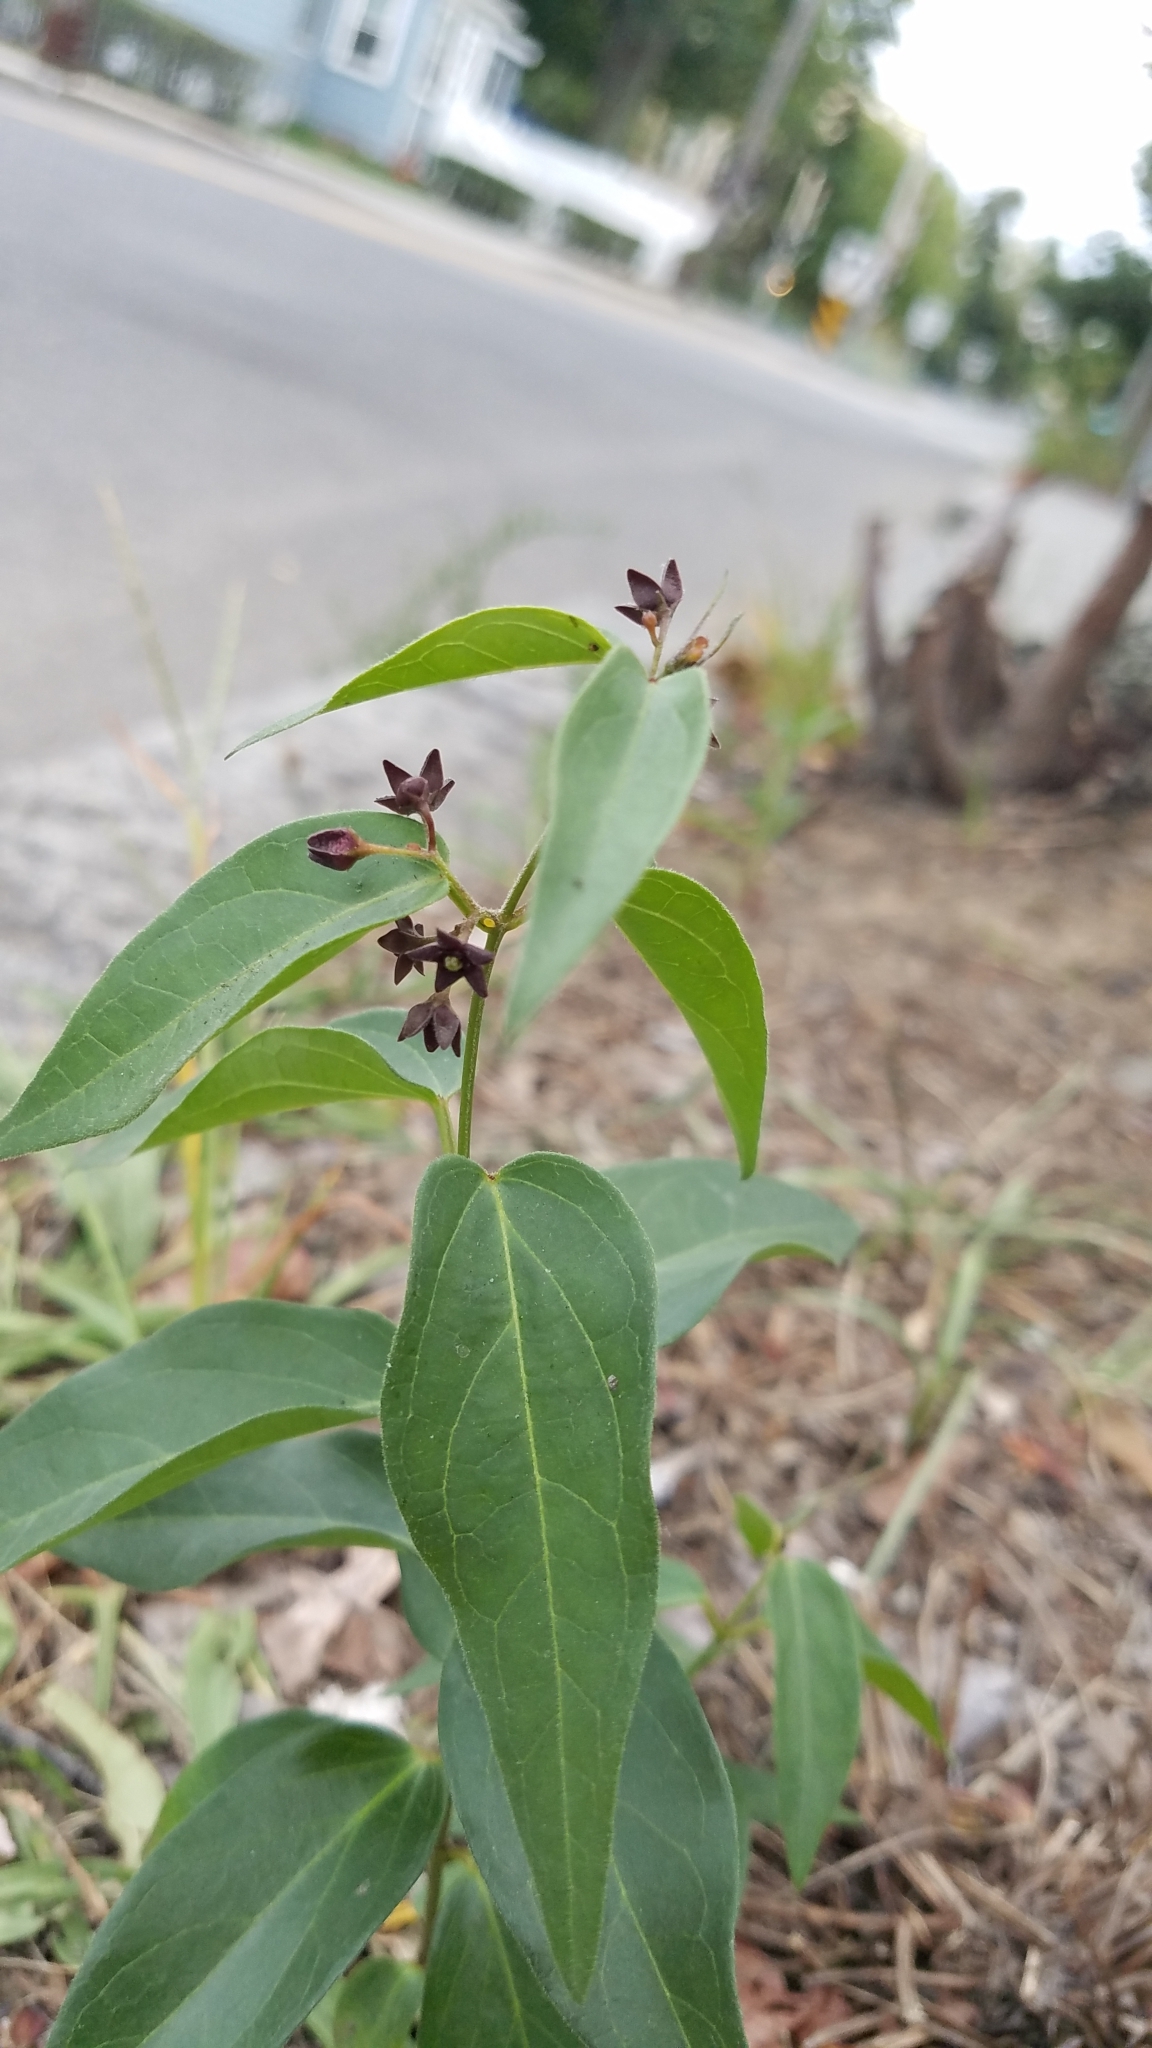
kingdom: Plantae
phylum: Tracheophyta
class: Magnoliopsida
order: Gentianales
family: Apocynaceae
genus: Vincetoxicum
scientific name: Vincetoxicum nigrum
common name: Black swallow-wort
